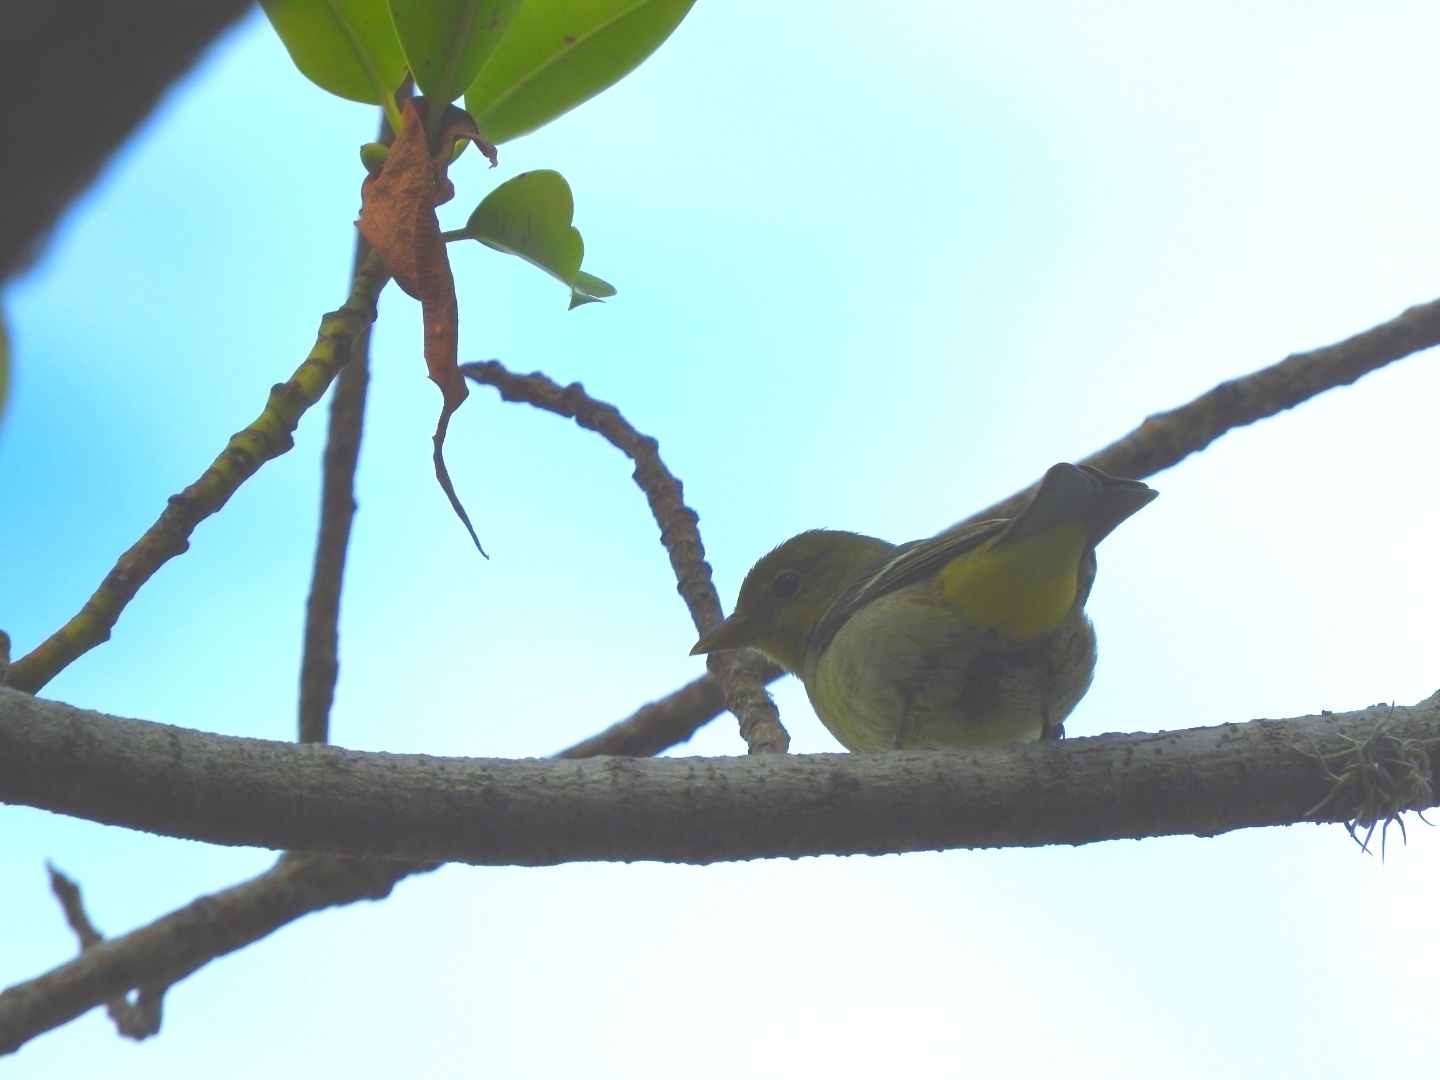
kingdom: Animalia
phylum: Chordata
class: Aves
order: Passeriformes
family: Cardinalidae
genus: Piranga
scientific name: Piranga ludoviciana
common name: Western tanager
